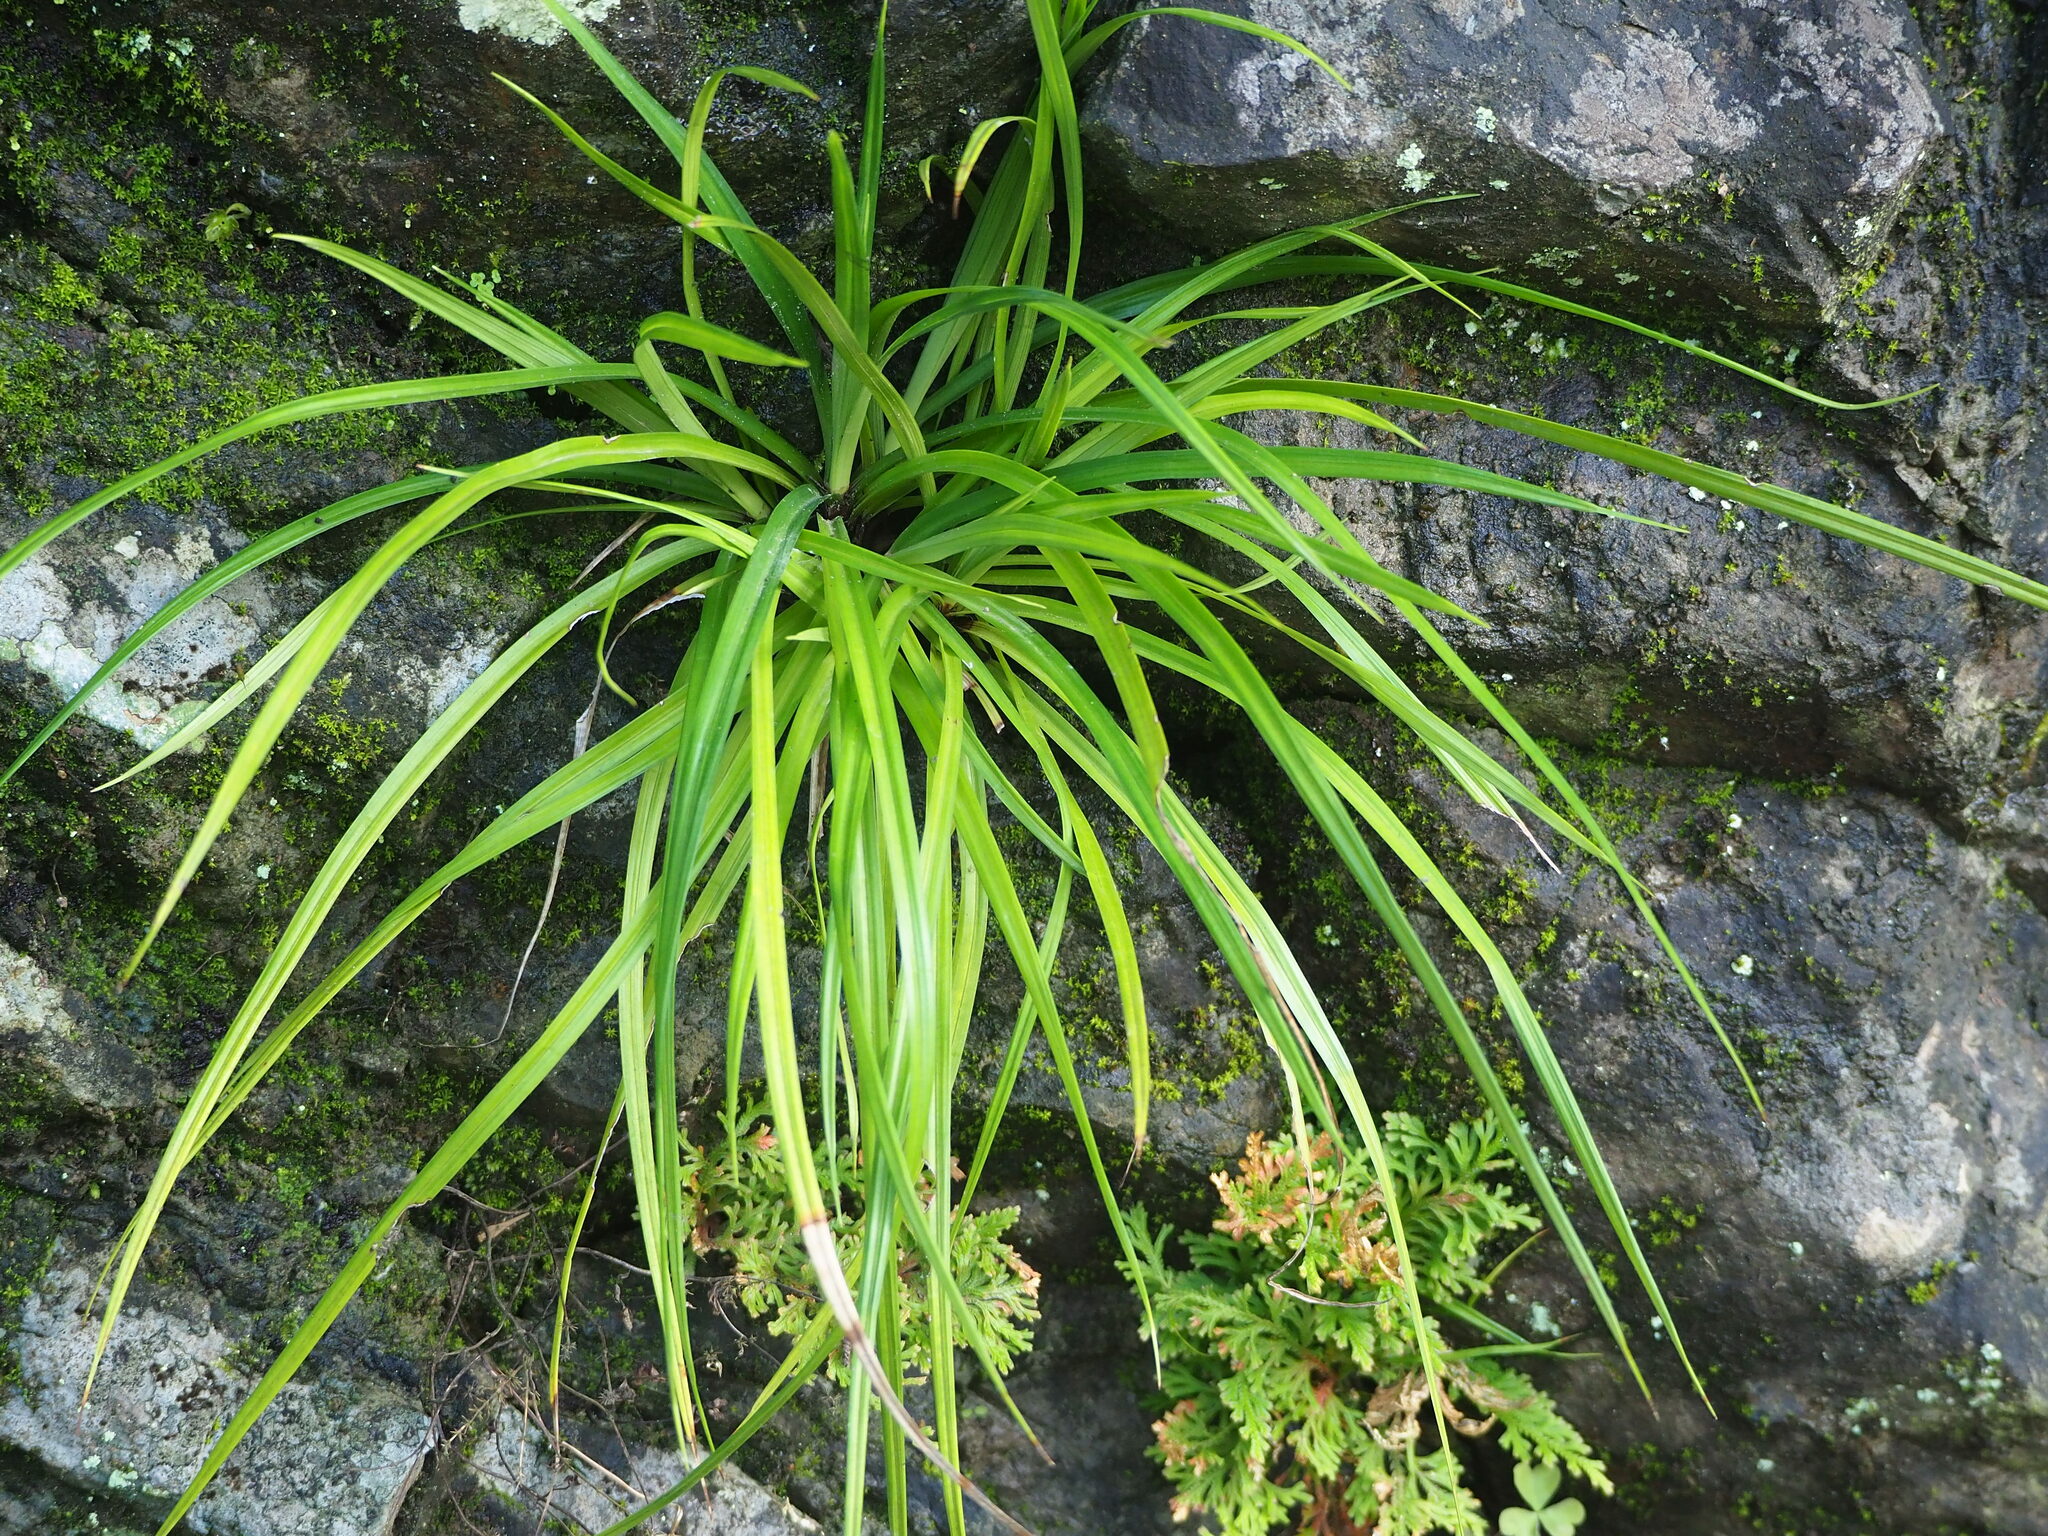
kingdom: Plantae
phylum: Tracheophyta
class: Liliopsida
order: Poales
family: Cyperaceae
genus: Carex
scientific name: Carex sociata
